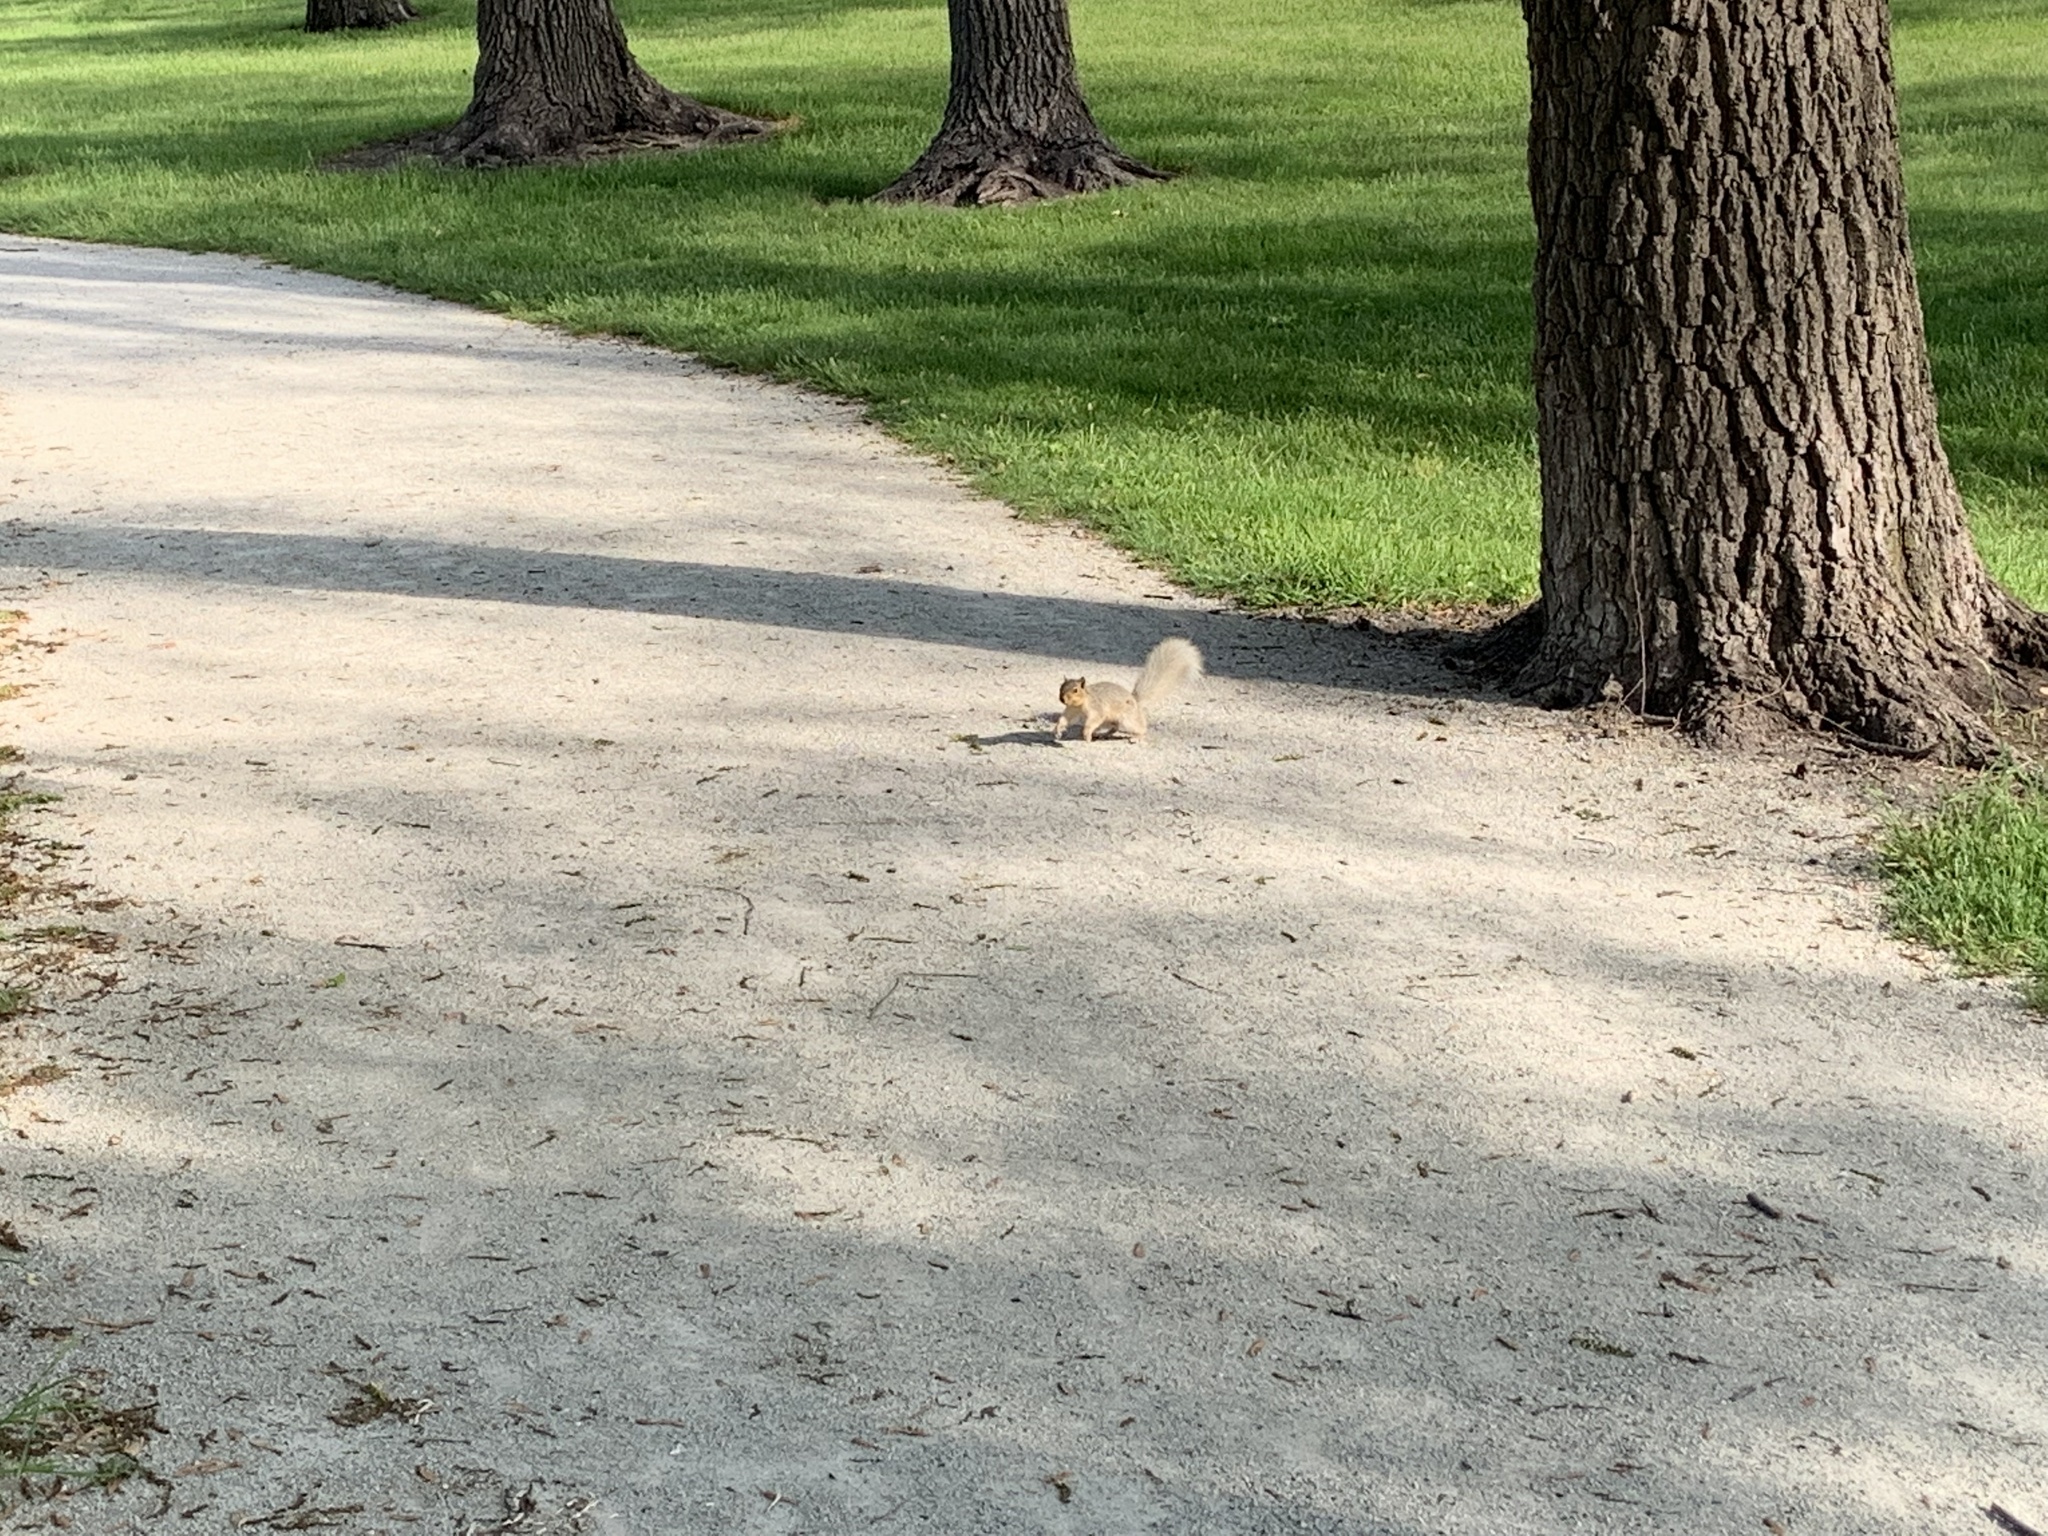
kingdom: Animalia
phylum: Chordata
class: Mammalia
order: Rodentia
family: Sciuridae
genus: Sciurus
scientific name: Sciurus niger
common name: Fox squirrel
